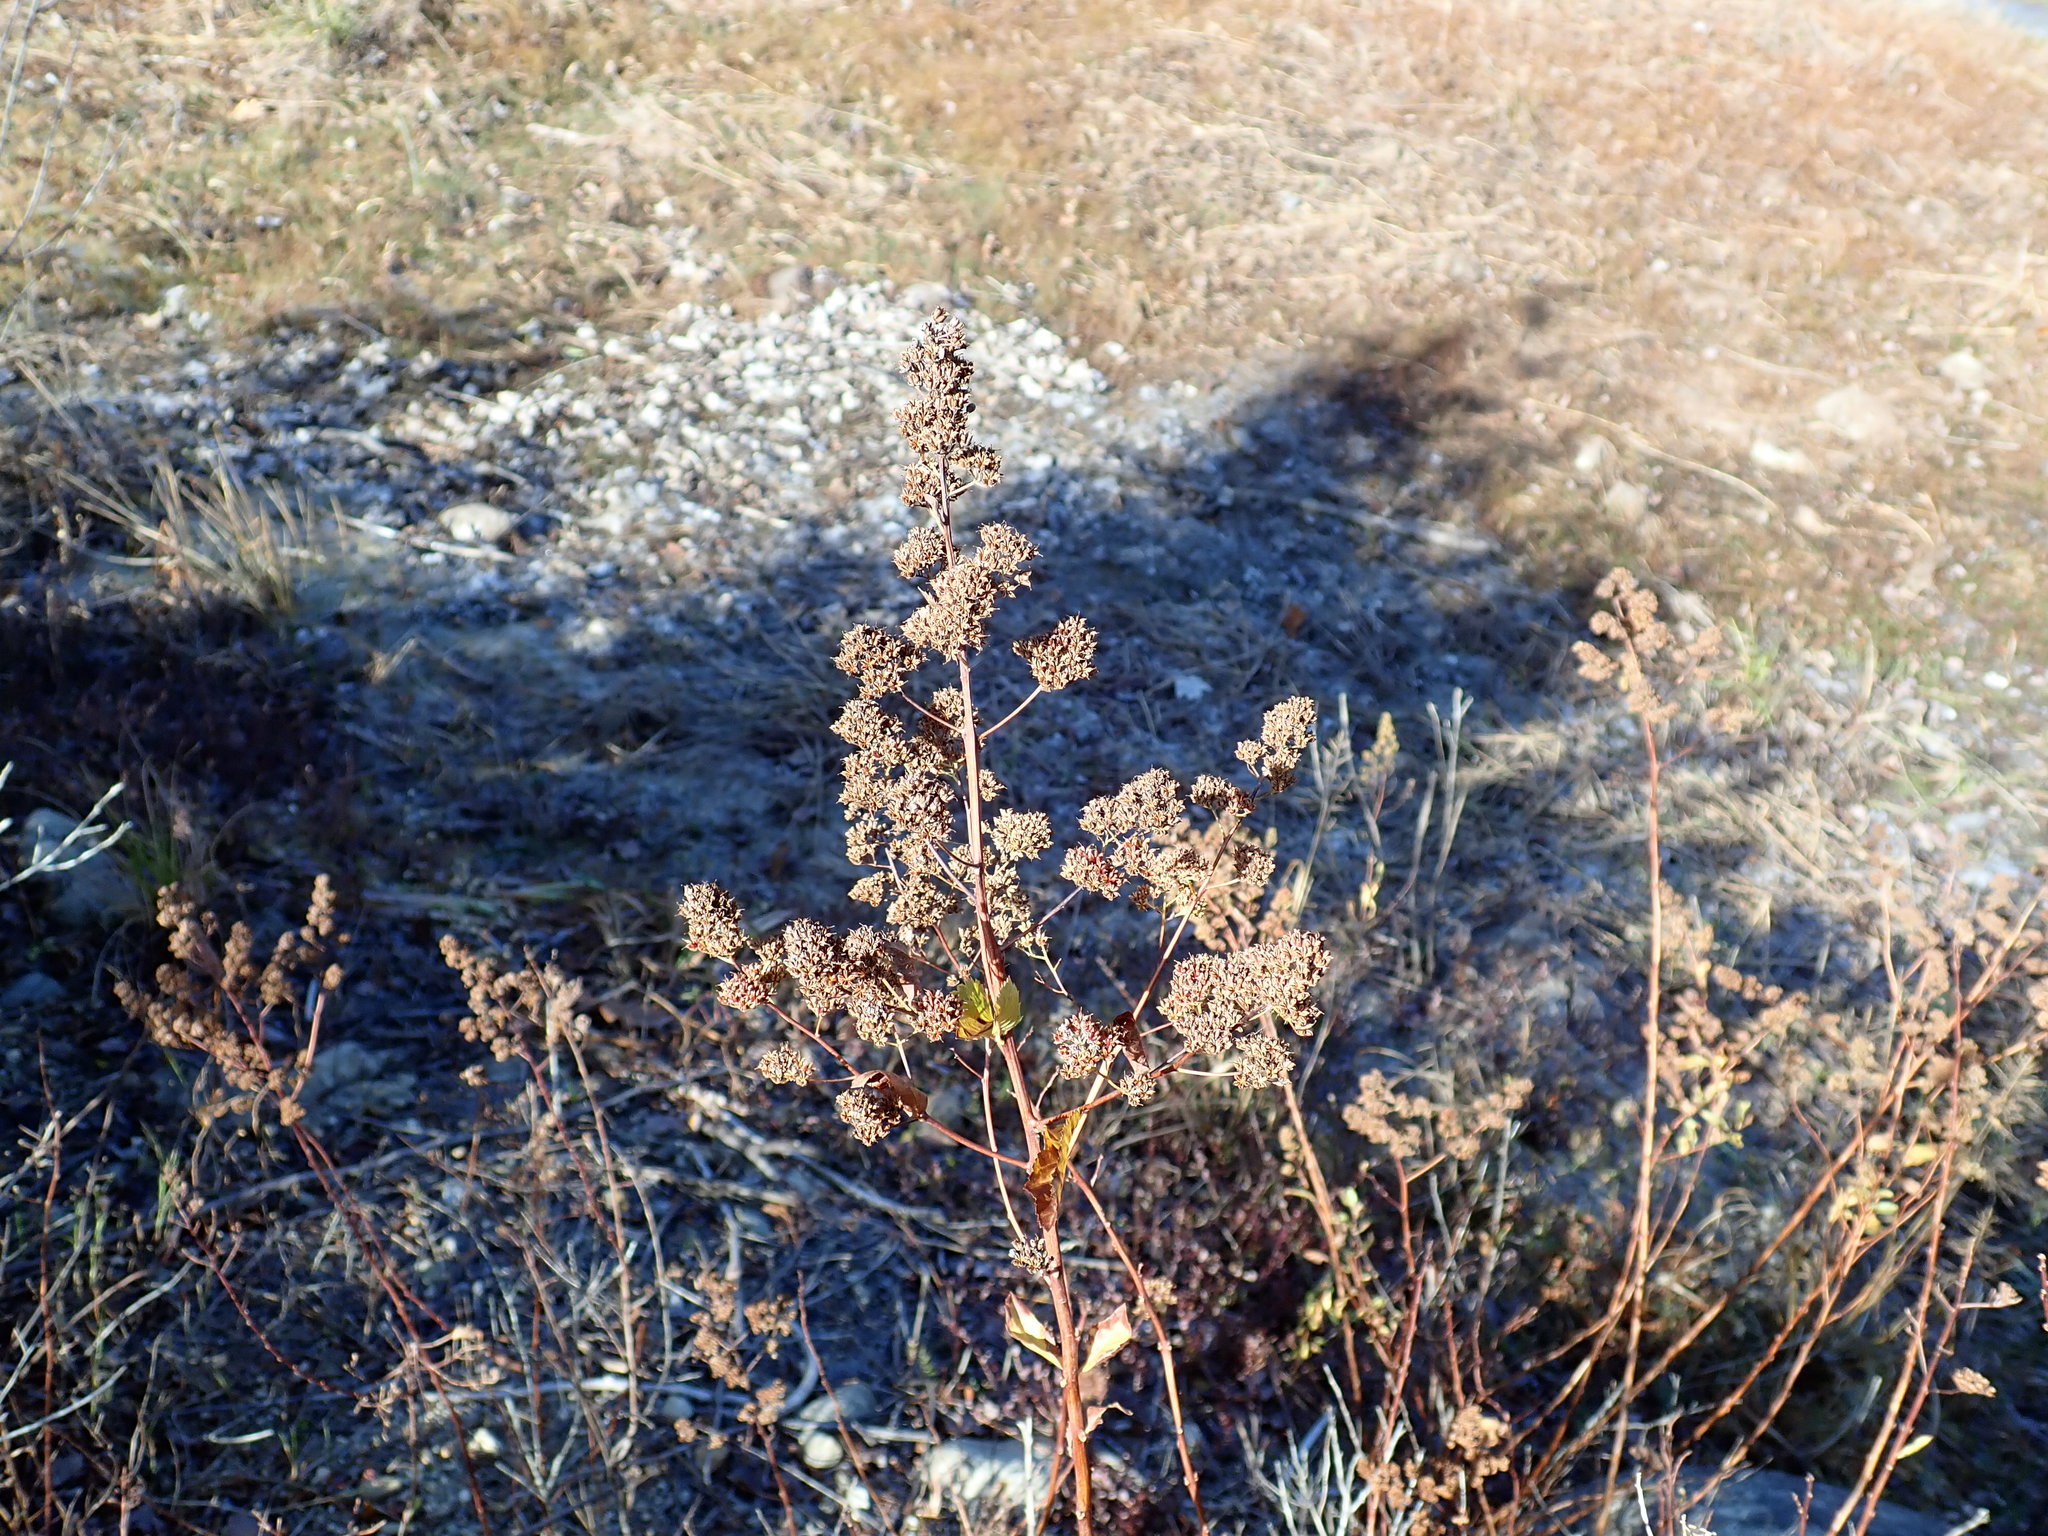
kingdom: Plantae
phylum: Tracheophyta
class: Magnoliopsida
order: Rosales
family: Rosaceae
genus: Spiraea
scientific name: Spiraea alba
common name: Pale bridewort
